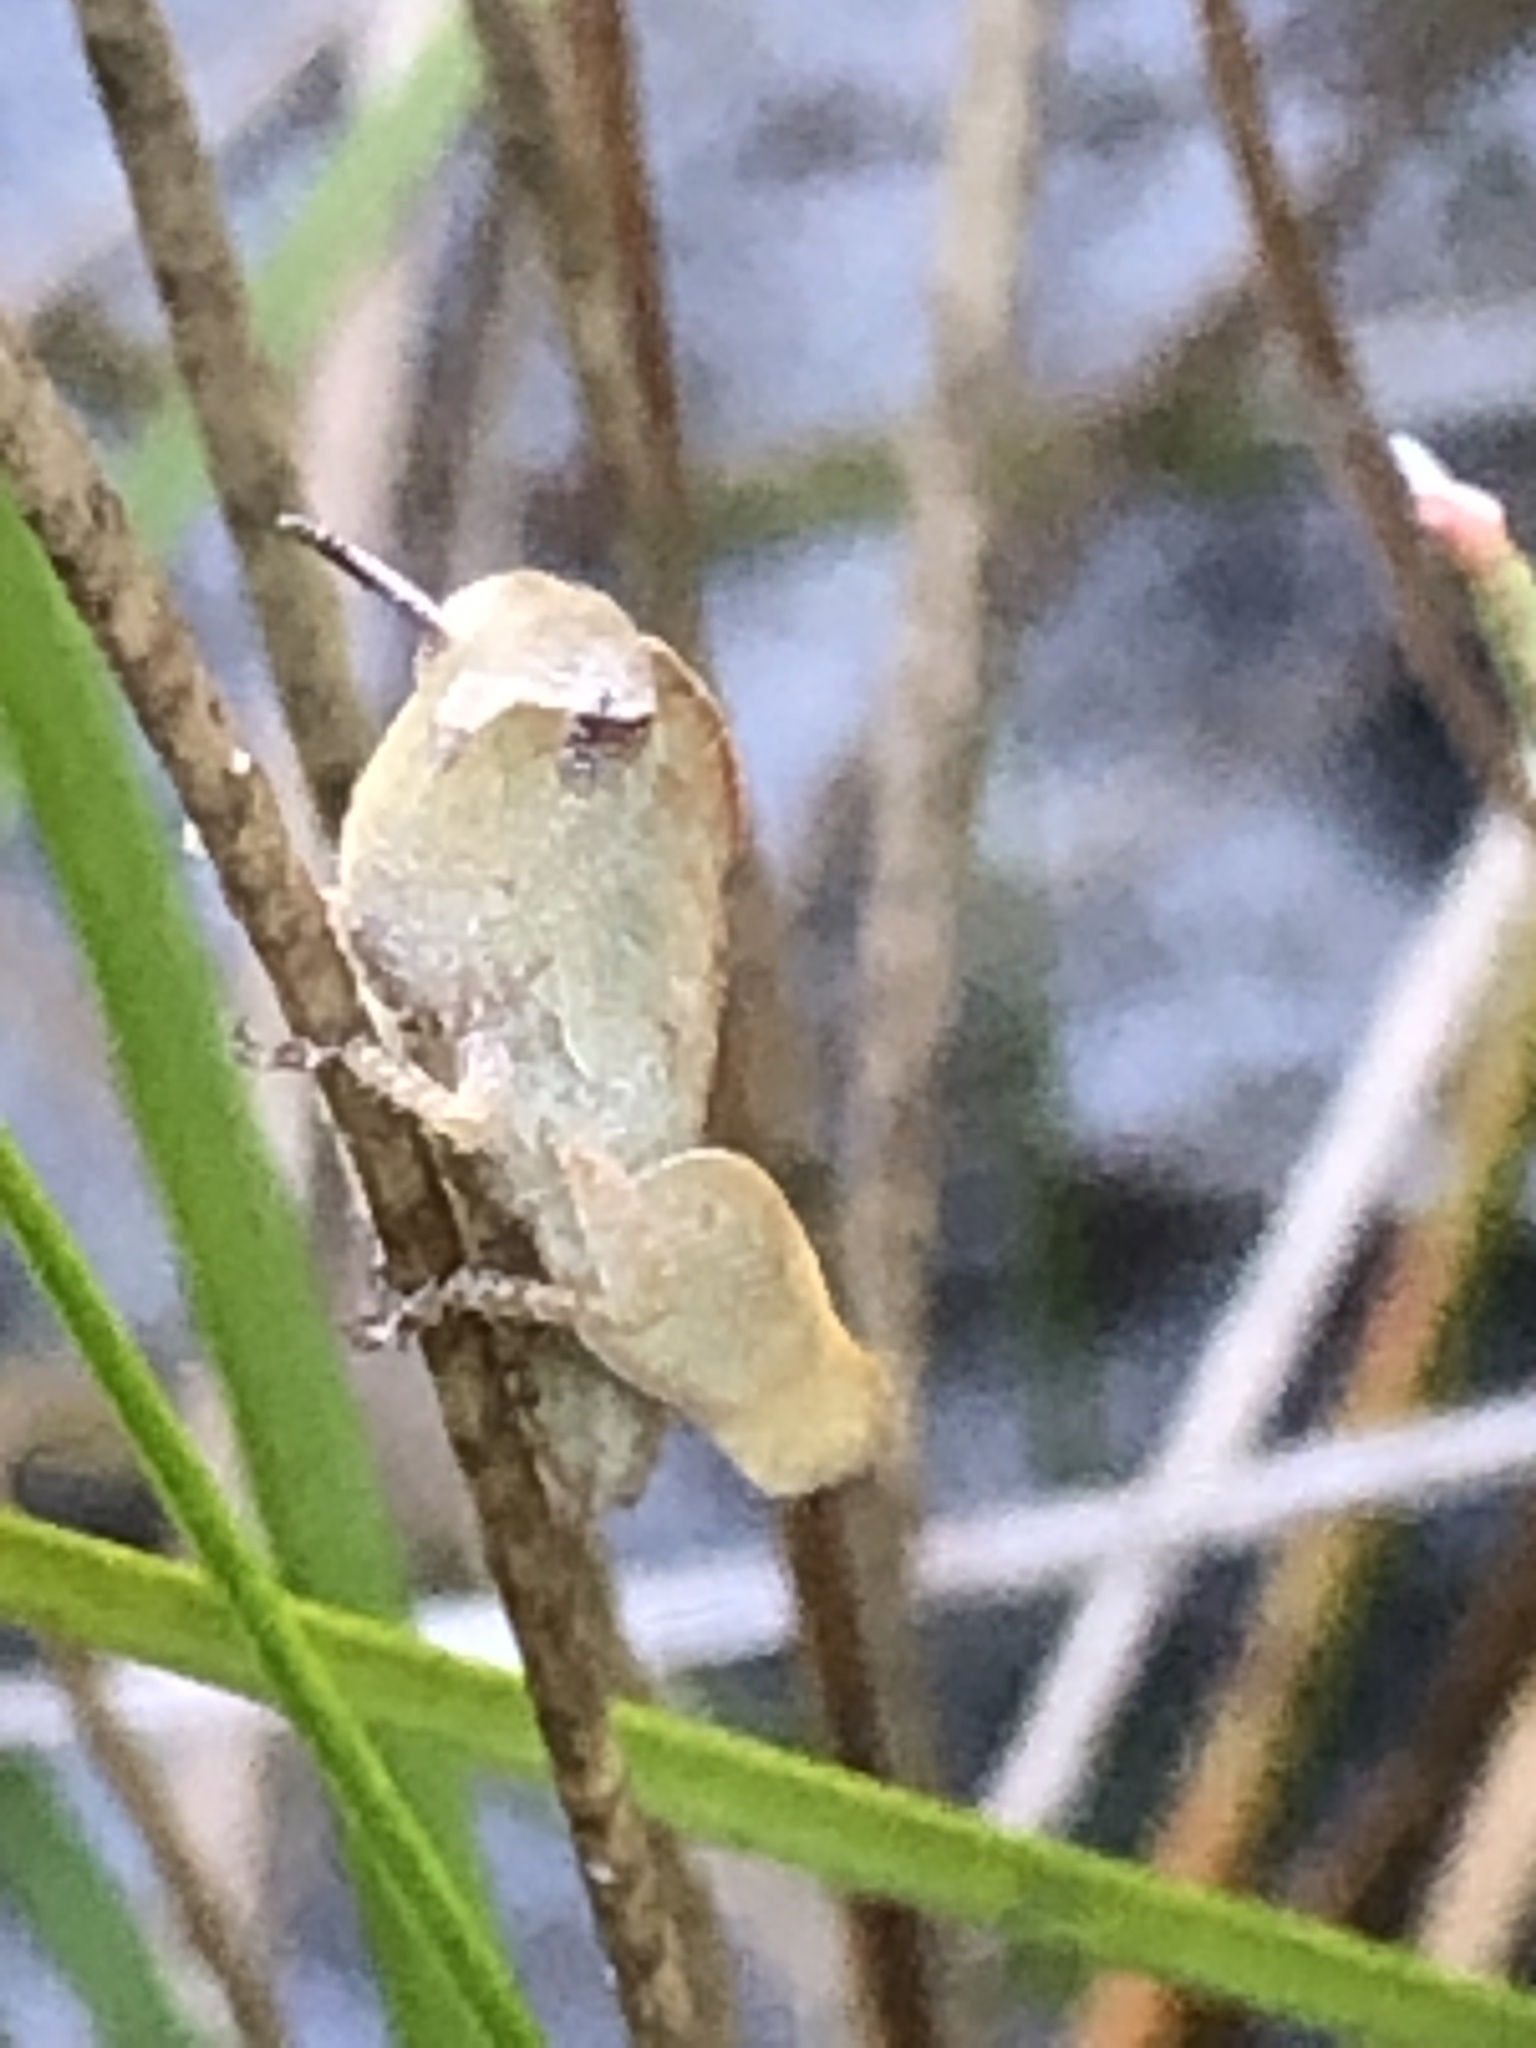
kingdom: Animalia
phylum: Arthropoda
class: Insecta
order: Orthoptera
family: Acrididae
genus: Chortophaga
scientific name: Chortophaga viridifasciata
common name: Green-striped grasshopper
